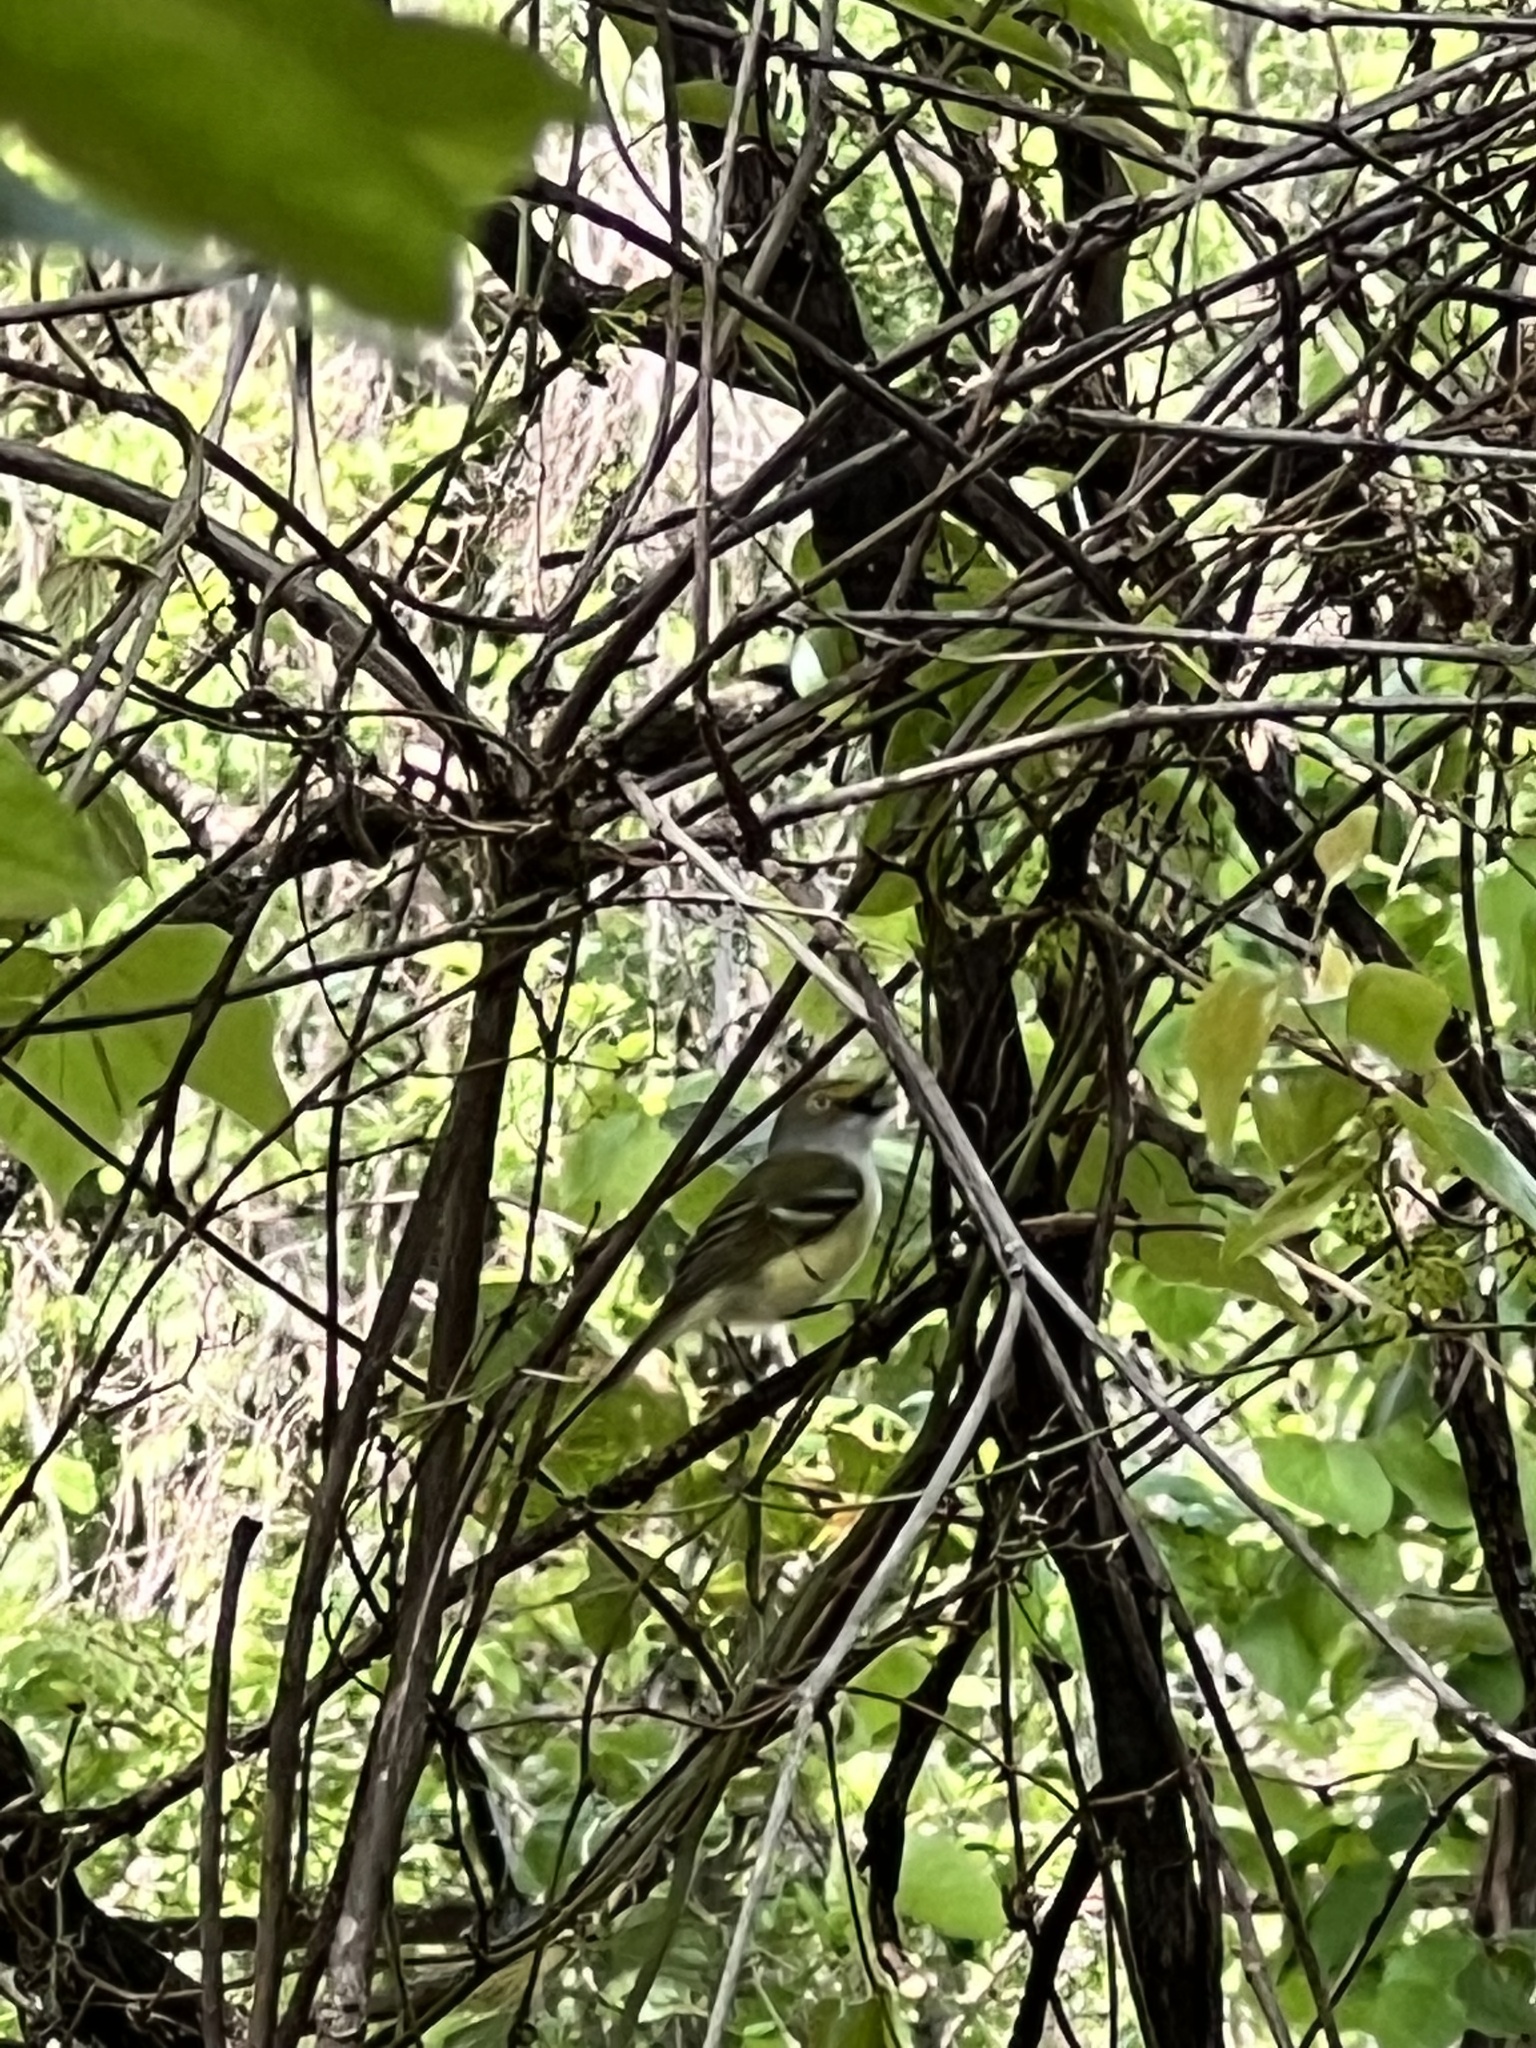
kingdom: Animalia
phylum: Chordata
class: Aves
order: Passeriformes
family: Vireonidae
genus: Vireo
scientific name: Vireo griseus
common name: White-eyed vireo
